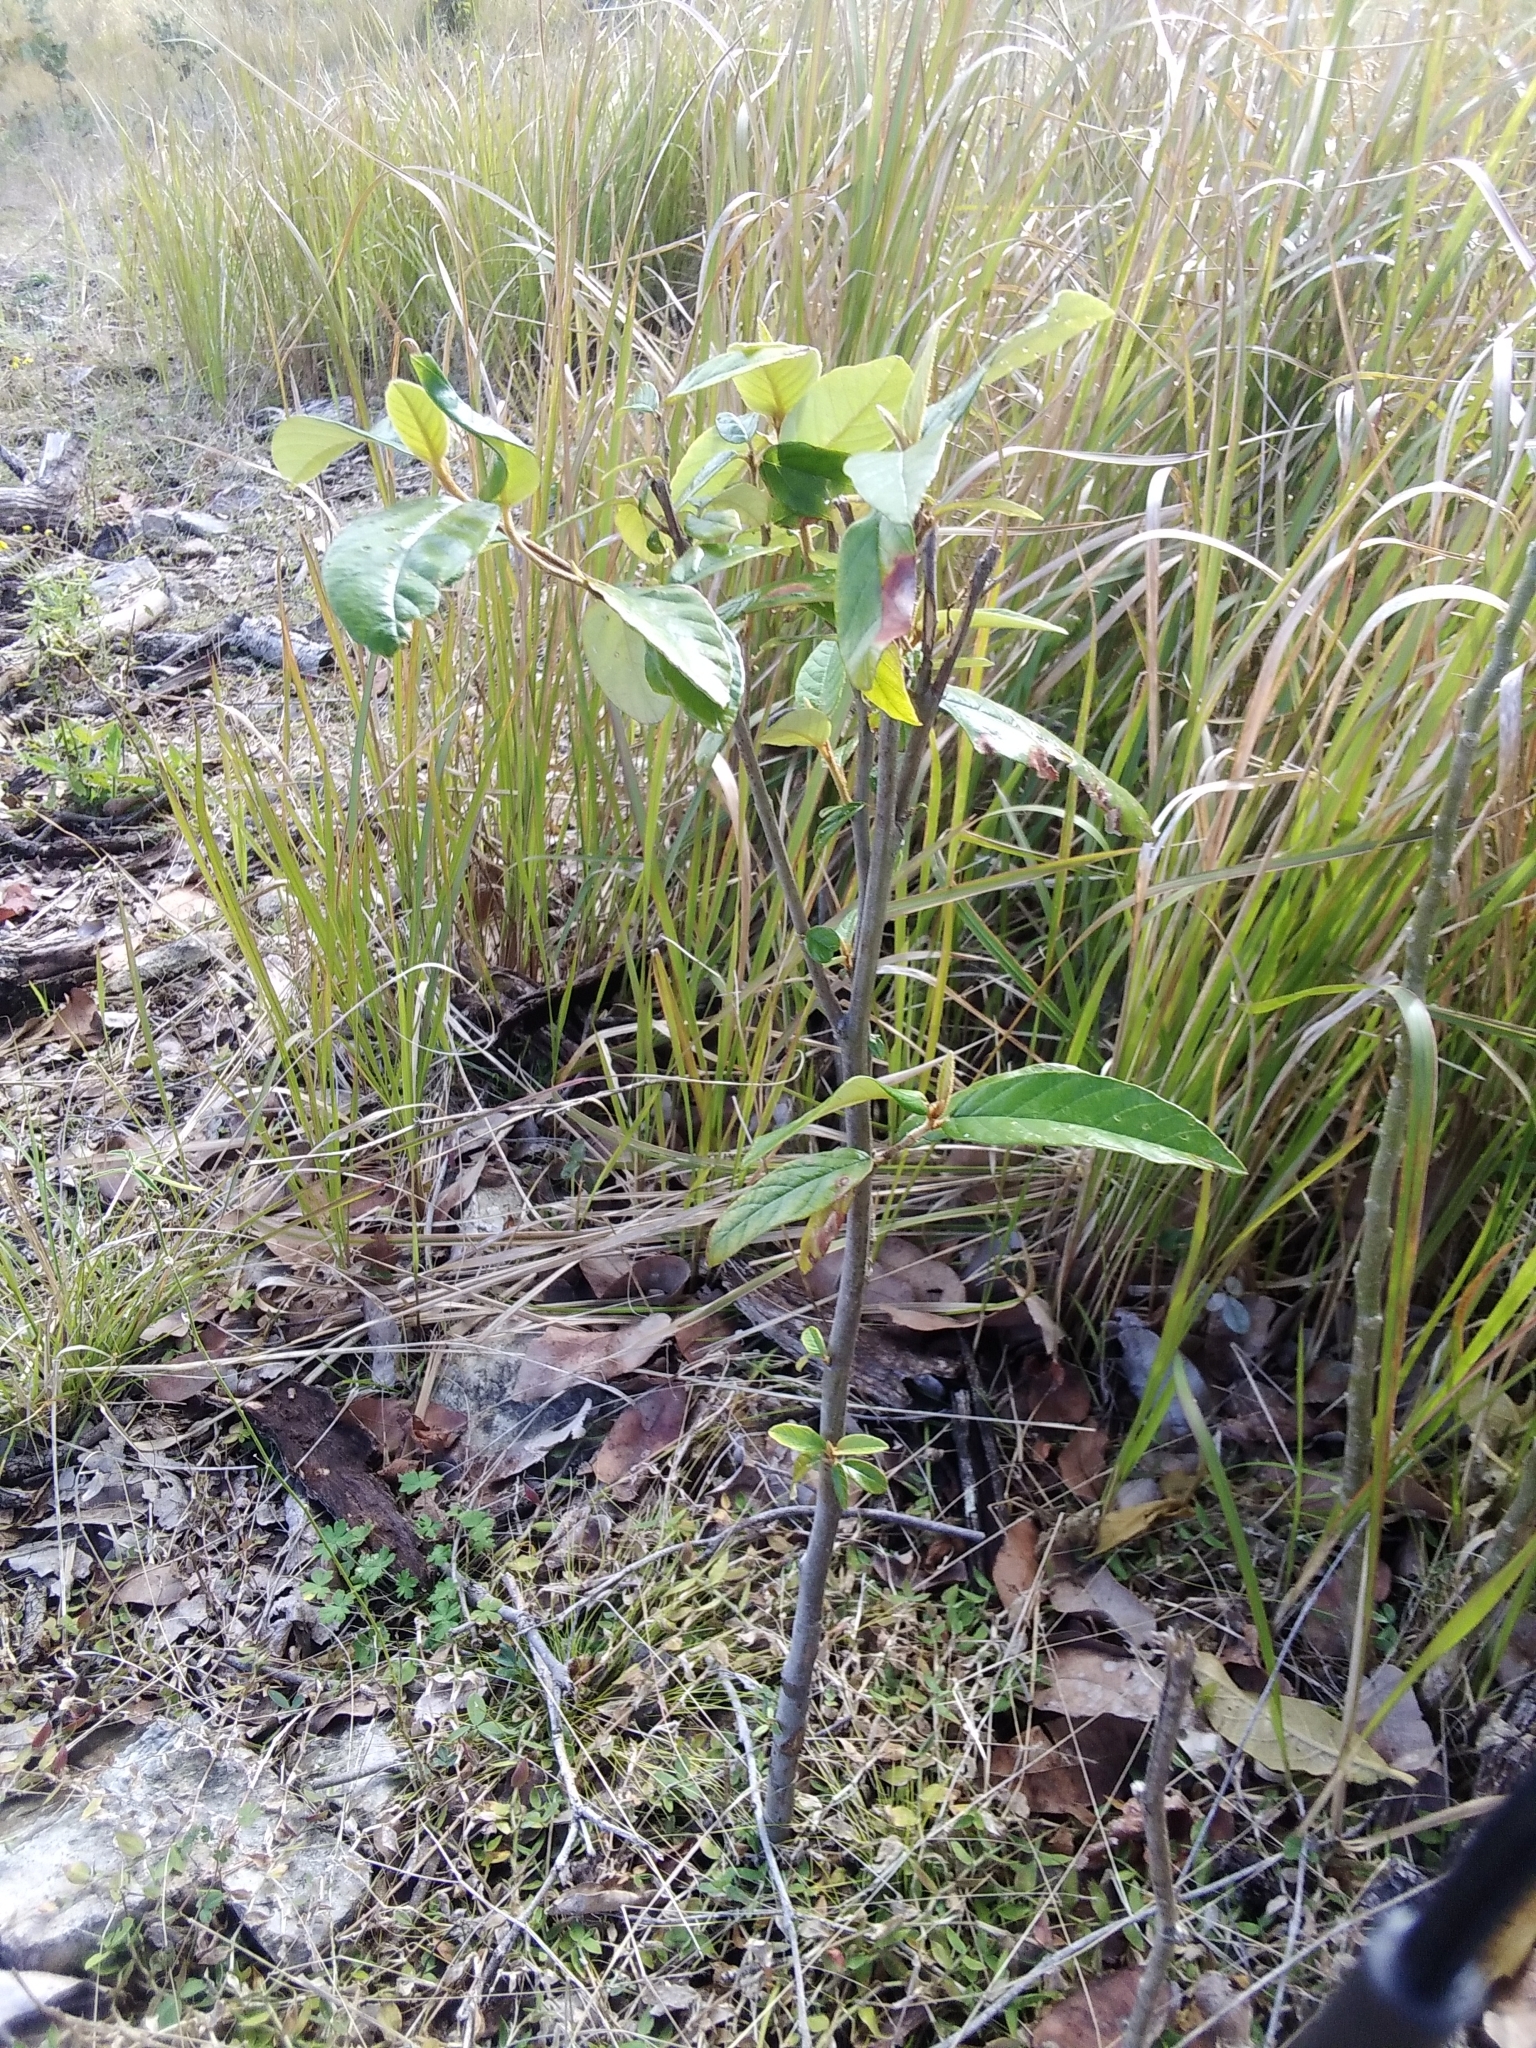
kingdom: Plantae
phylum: Tracheophyta
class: Magnoliopsida
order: Rosales
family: Rhamnaceae
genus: Alphitonia
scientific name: Alphitonia excelsa
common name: Red ash
